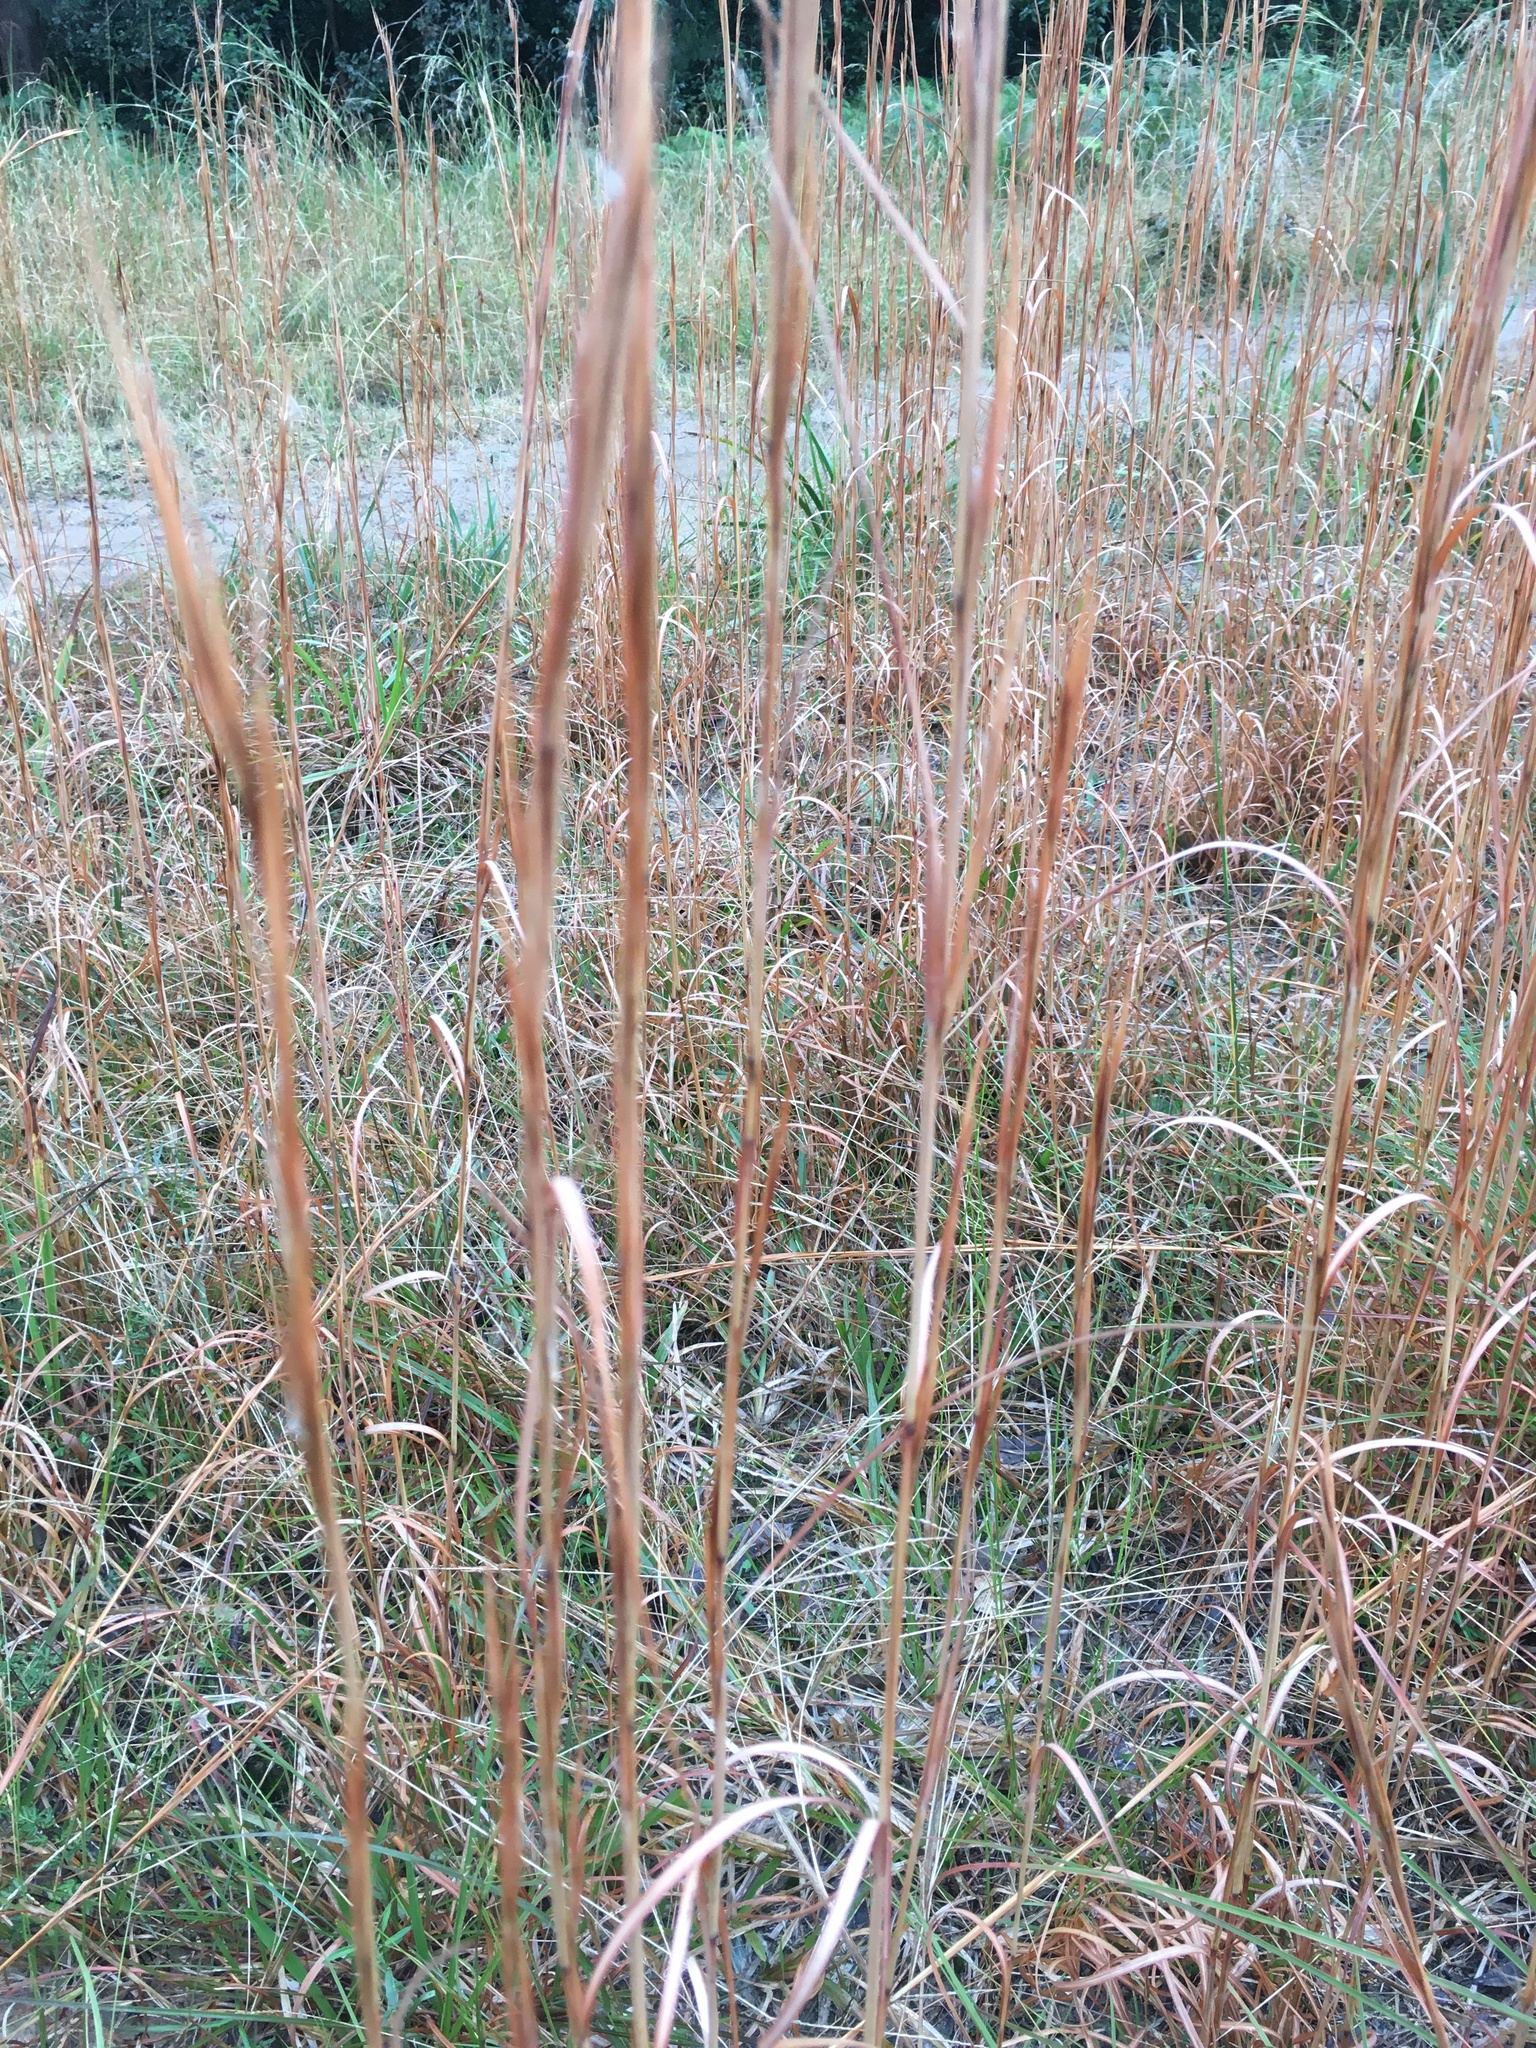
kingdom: Plantae
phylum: Tracheophyta
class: Liliopsida
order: Poales
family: Poaceae
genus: Andropogon
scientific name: Andropogon virginicus
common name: Broomsedge bluestem
